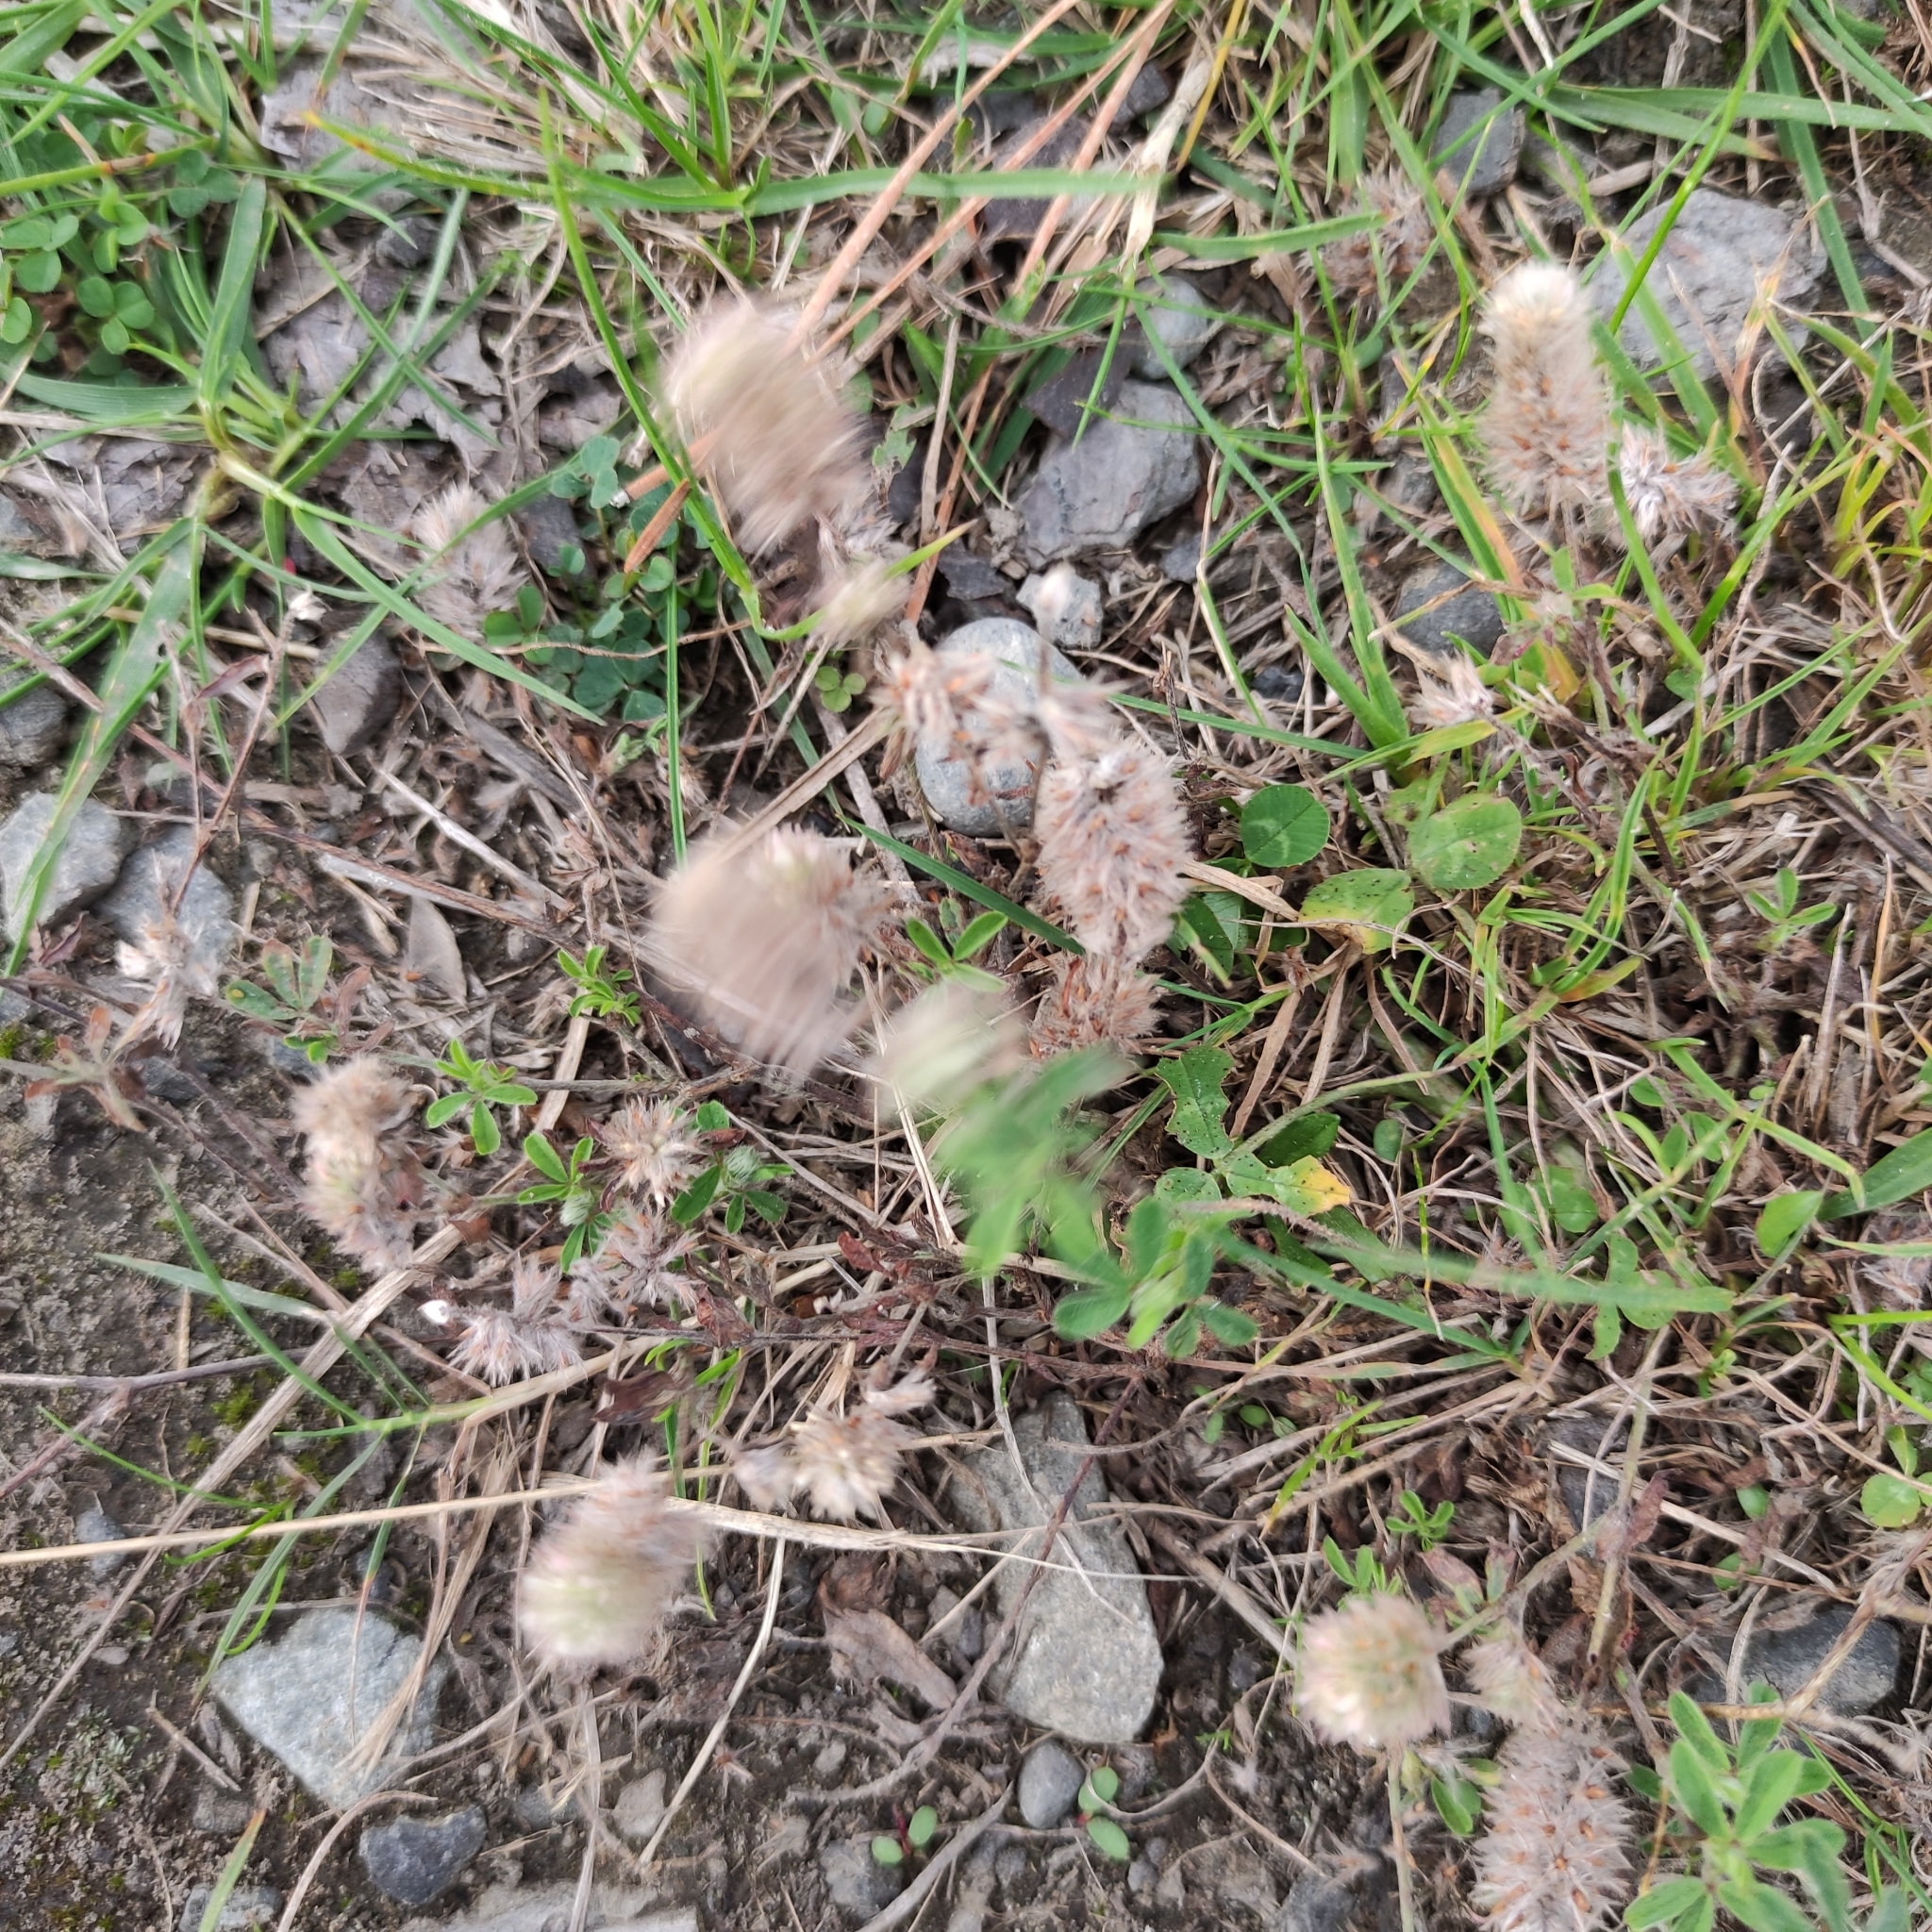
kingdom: Plantae
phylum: Tracheophyta
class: Magnoliopsida
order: Fabales
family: Fabaceae
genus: Trifolium
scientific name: Trifolium arvense
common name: Hare's-foot clover
